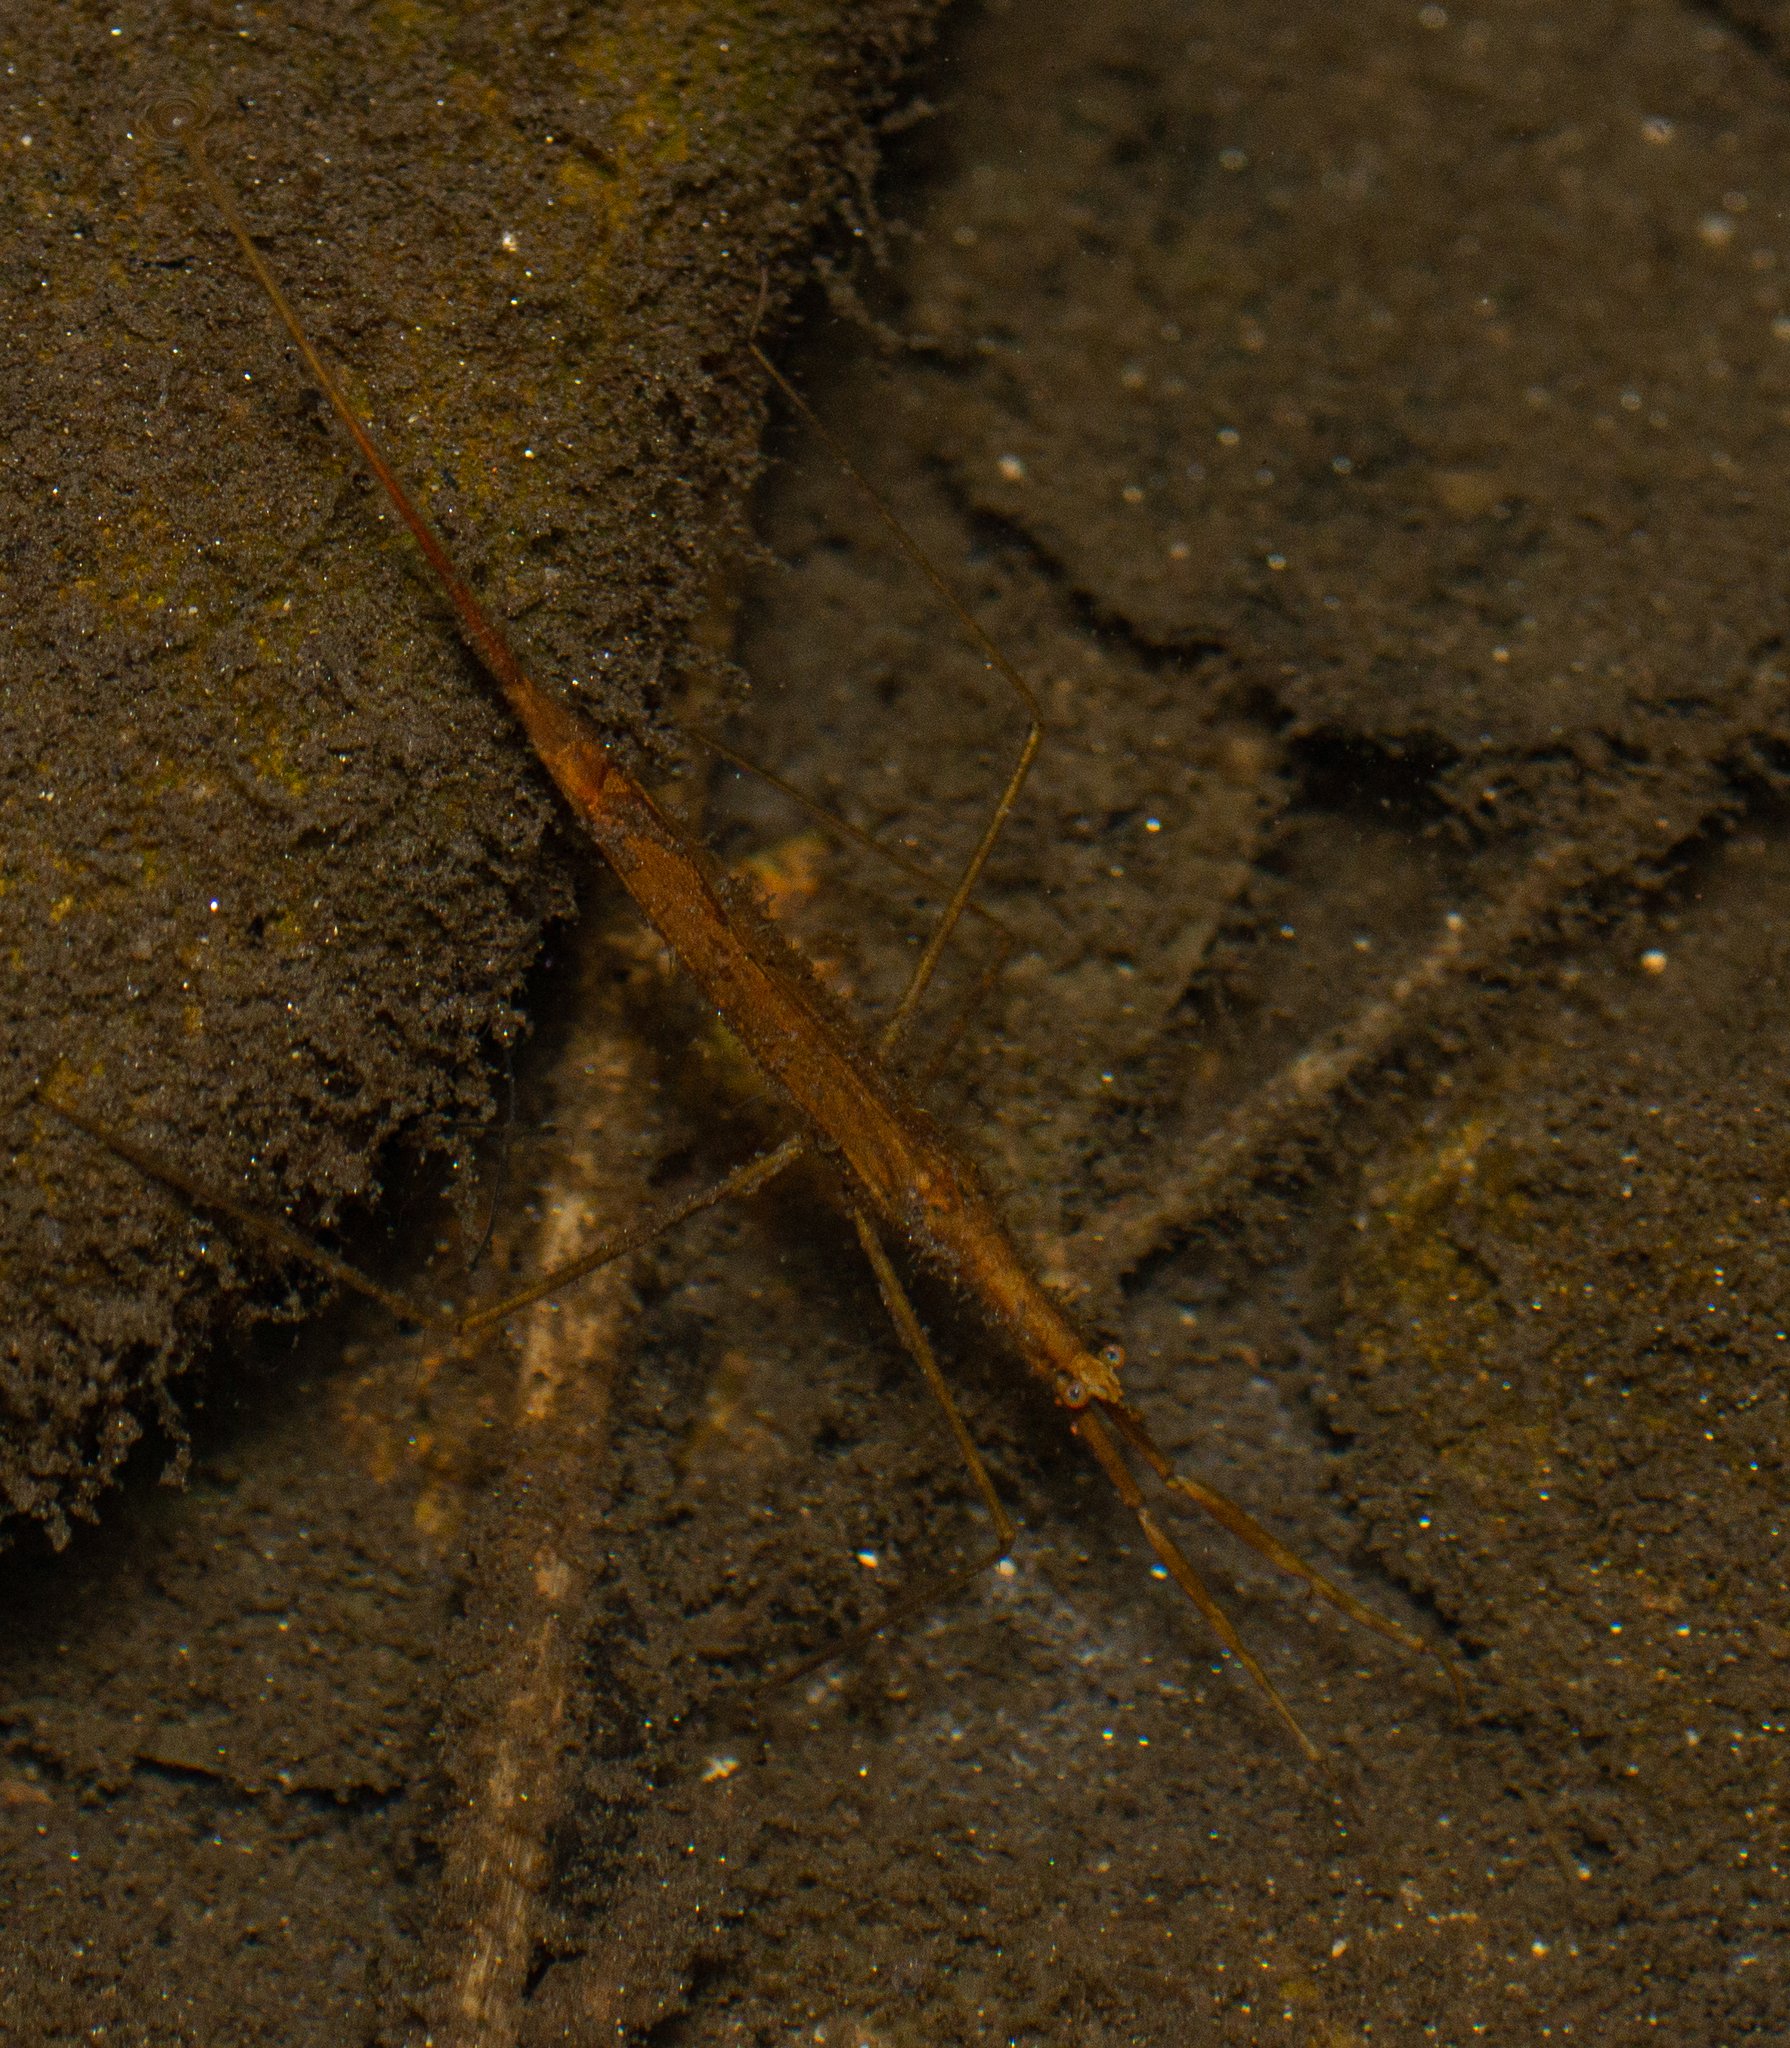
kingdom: Animalia
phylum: Arthropoda
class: Insecta
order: Hemiptera
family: Nepidae
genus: Ranatra
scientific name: Ranatra linearis
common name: Water stick insect
